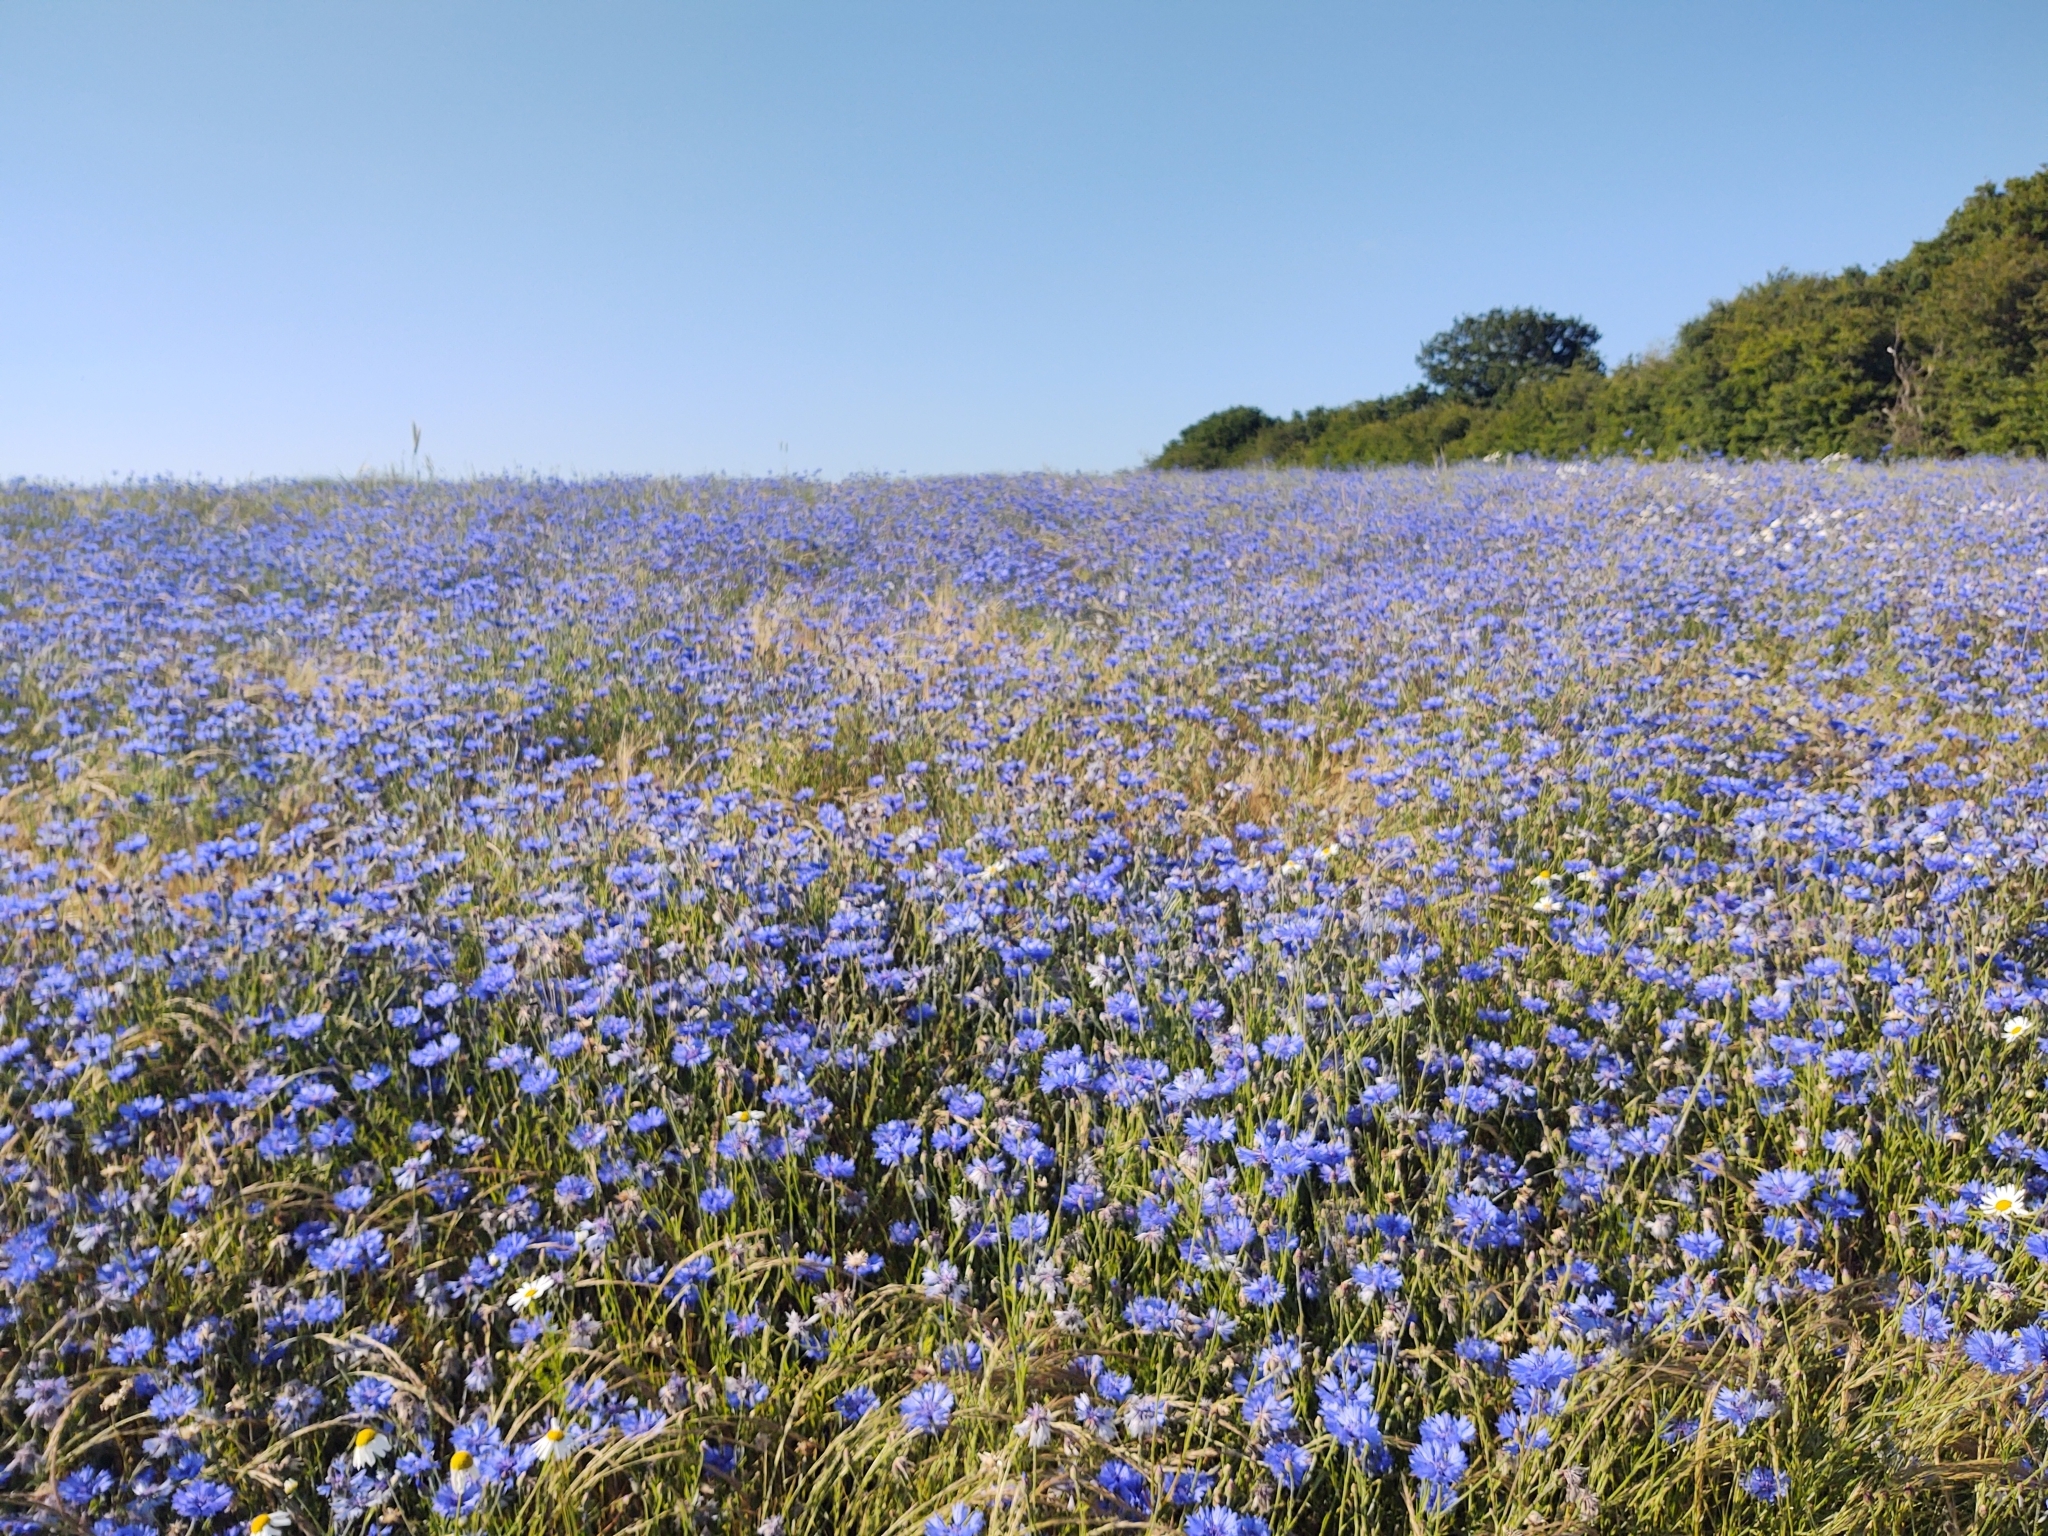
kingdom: Plantae
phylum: Tracheophyta
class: Magnoliopsida
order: Asterales
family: Asteraceae
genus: Centaurea
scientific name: Centaurea cyanus
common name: Cornflower
